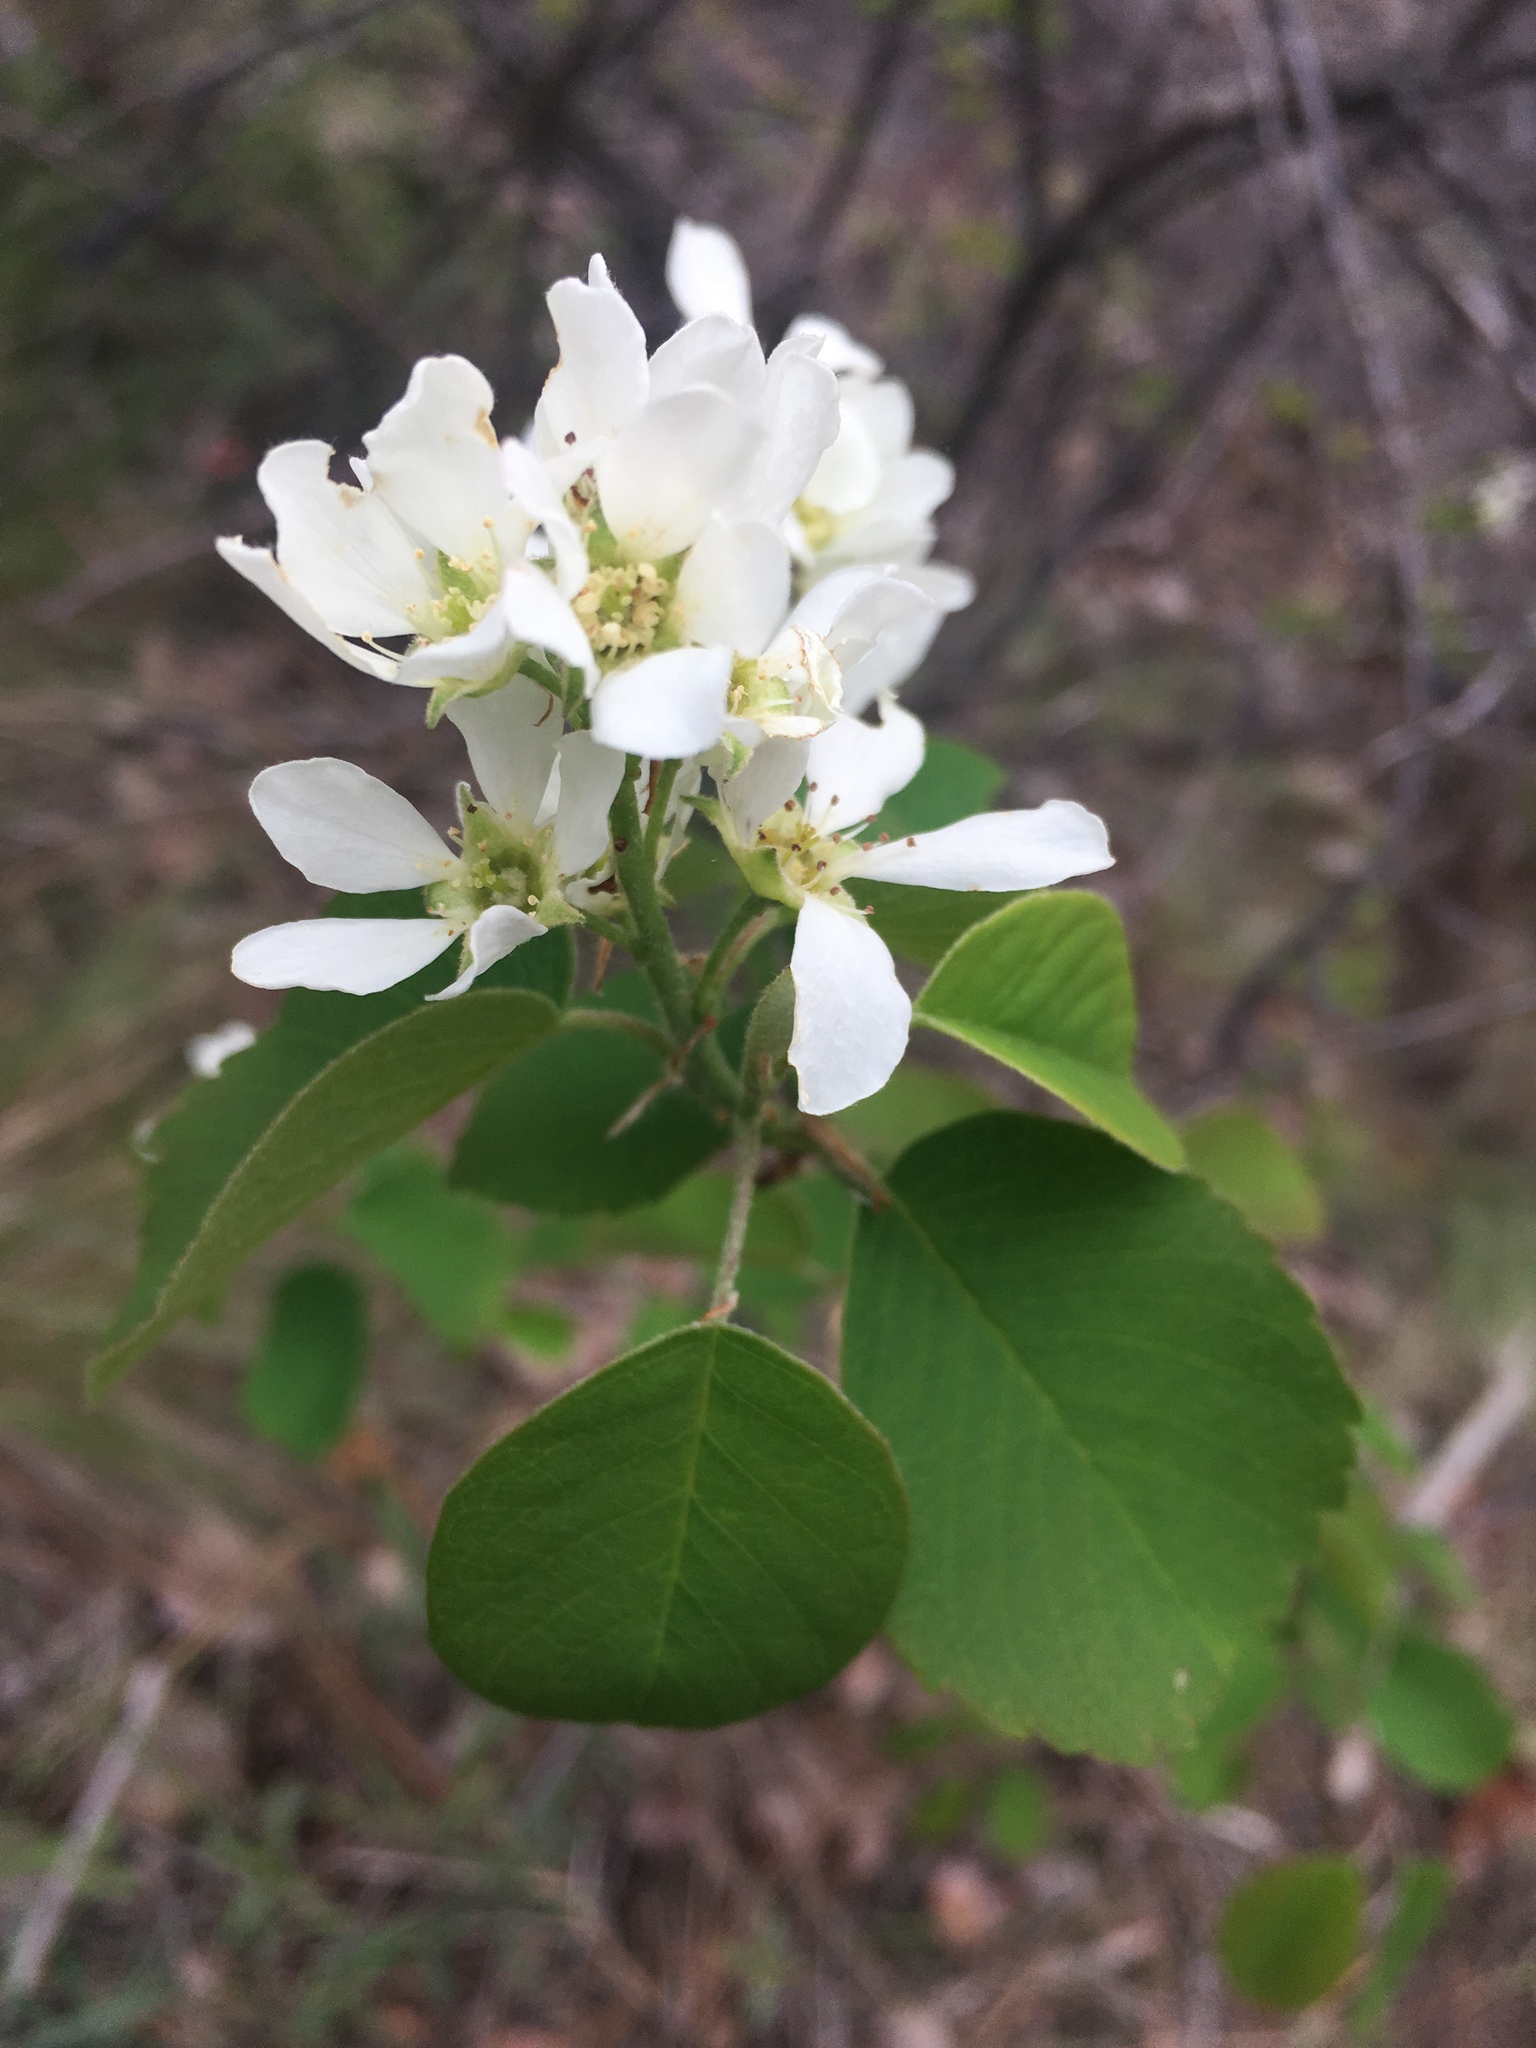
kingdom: Plantae
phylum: Tracheophyta
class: Magnoliopsida
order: Rosales
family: Rosaceae
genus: Amelanchier
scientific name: Amelanchier alnifolia
